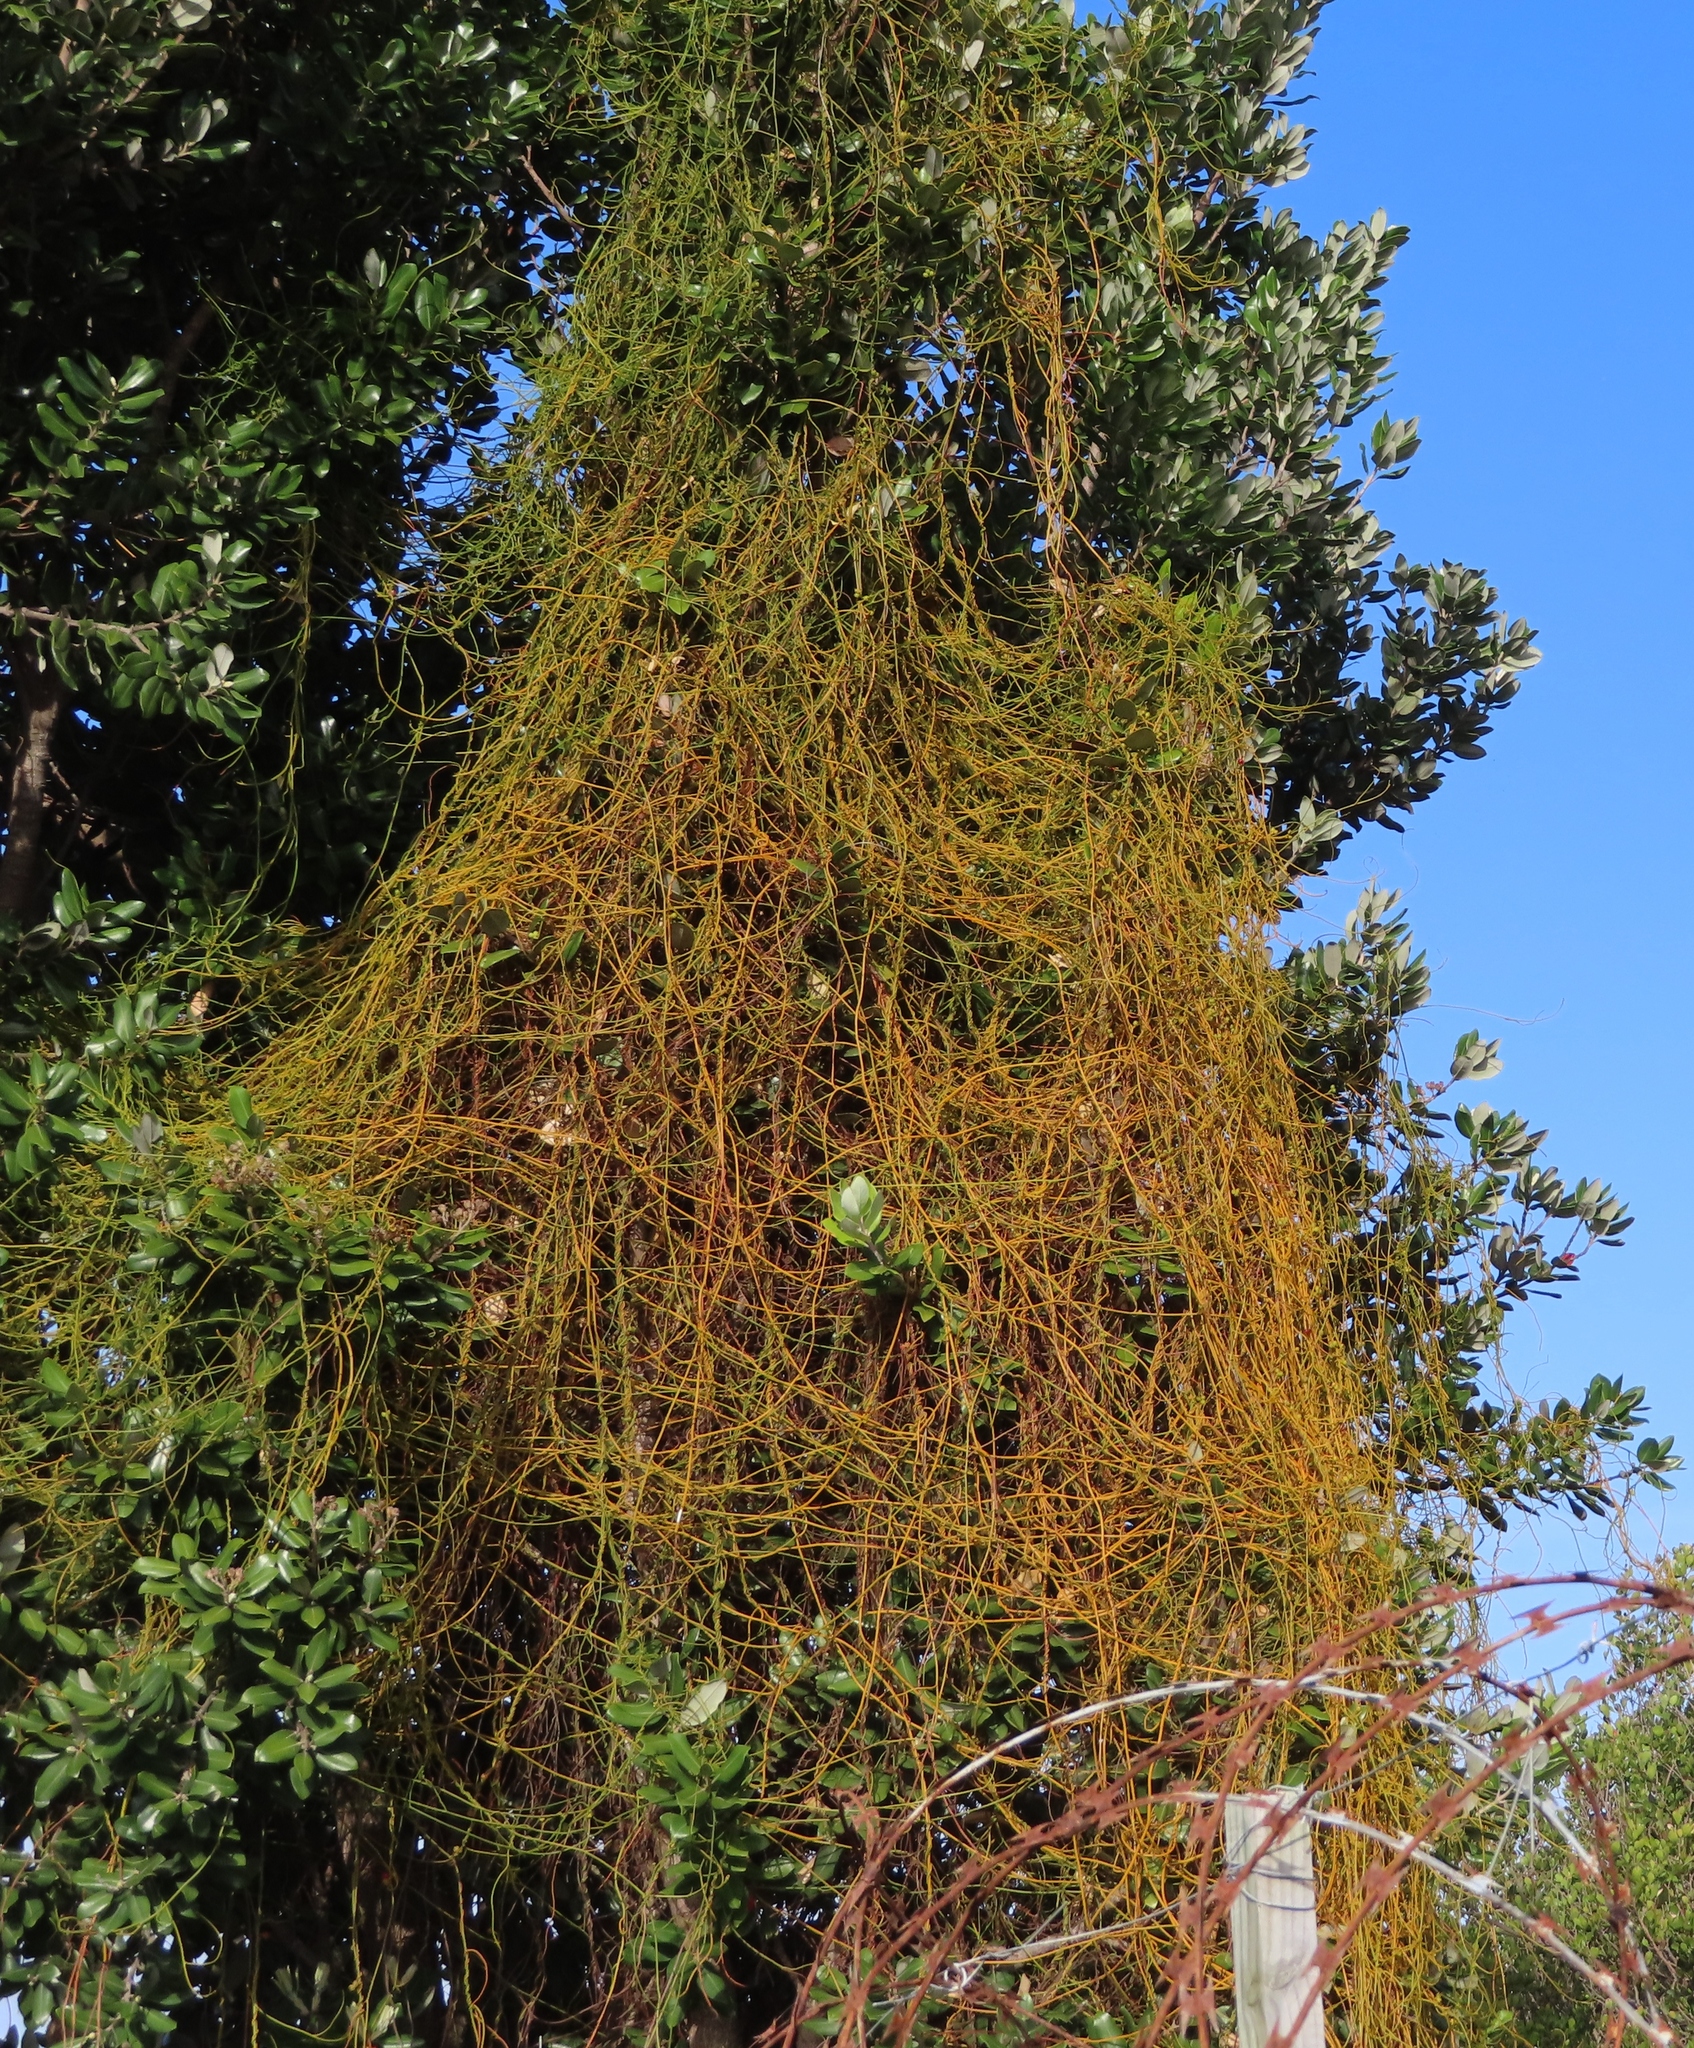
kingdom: Plantae
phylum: Tracheophyta
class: Magnoliopsida
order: Laurales
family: Lauraceae
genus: Cassytha
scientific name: Cassytha ciliolata
